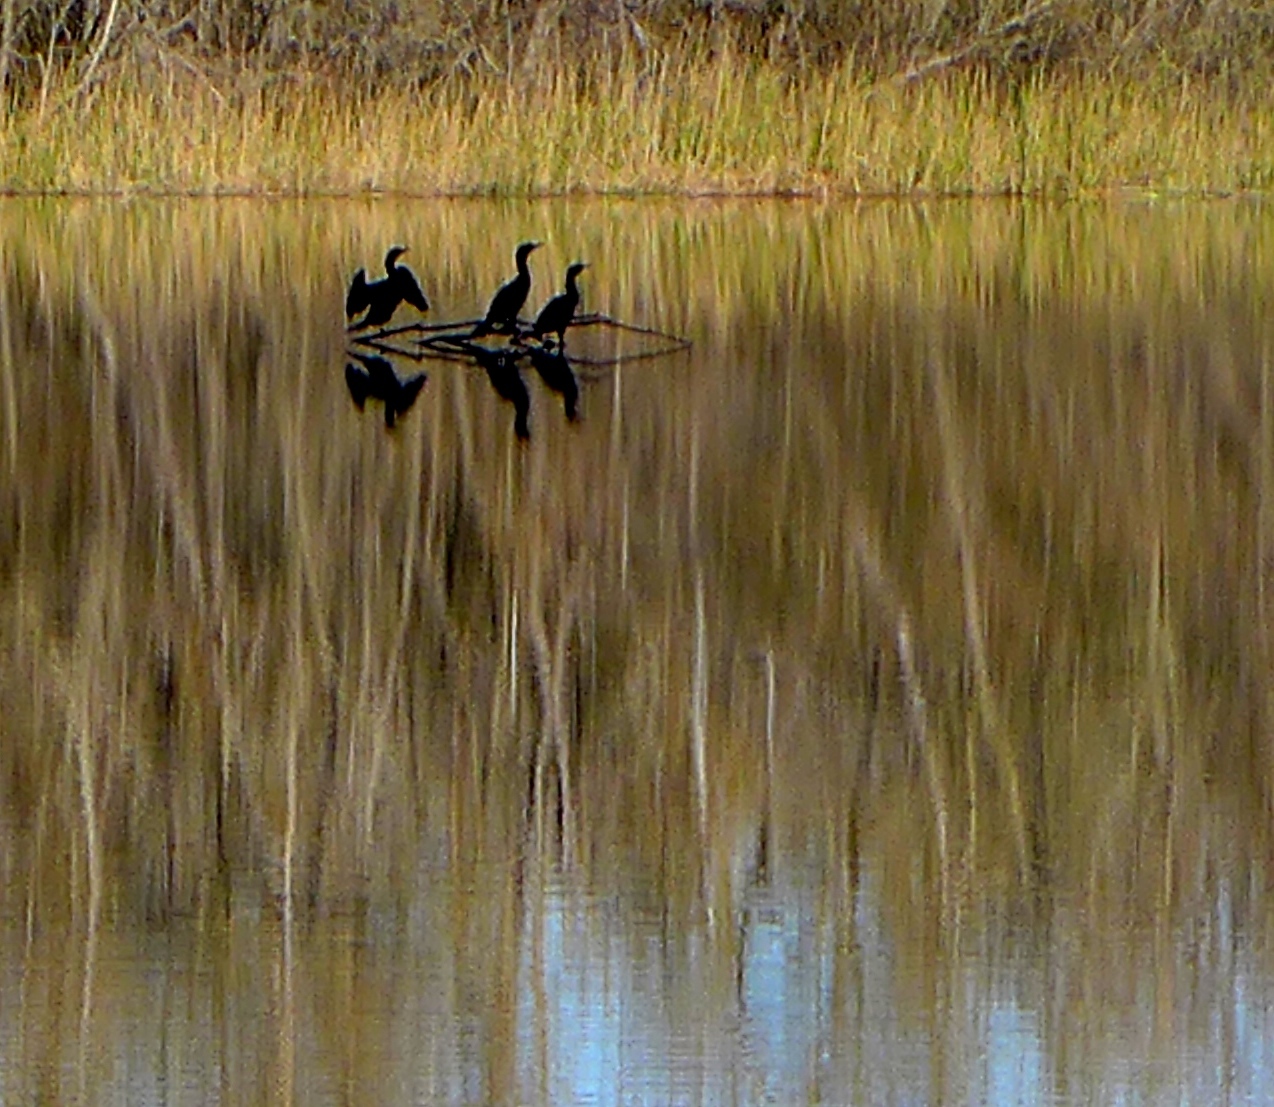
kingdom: Animalia
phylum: Chordata
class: Aves
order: Suliformes
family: Phalacrocoracidae
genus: Phalacrocorax
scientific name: Phalacrocorax auritus
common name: Double-crested cormorant
